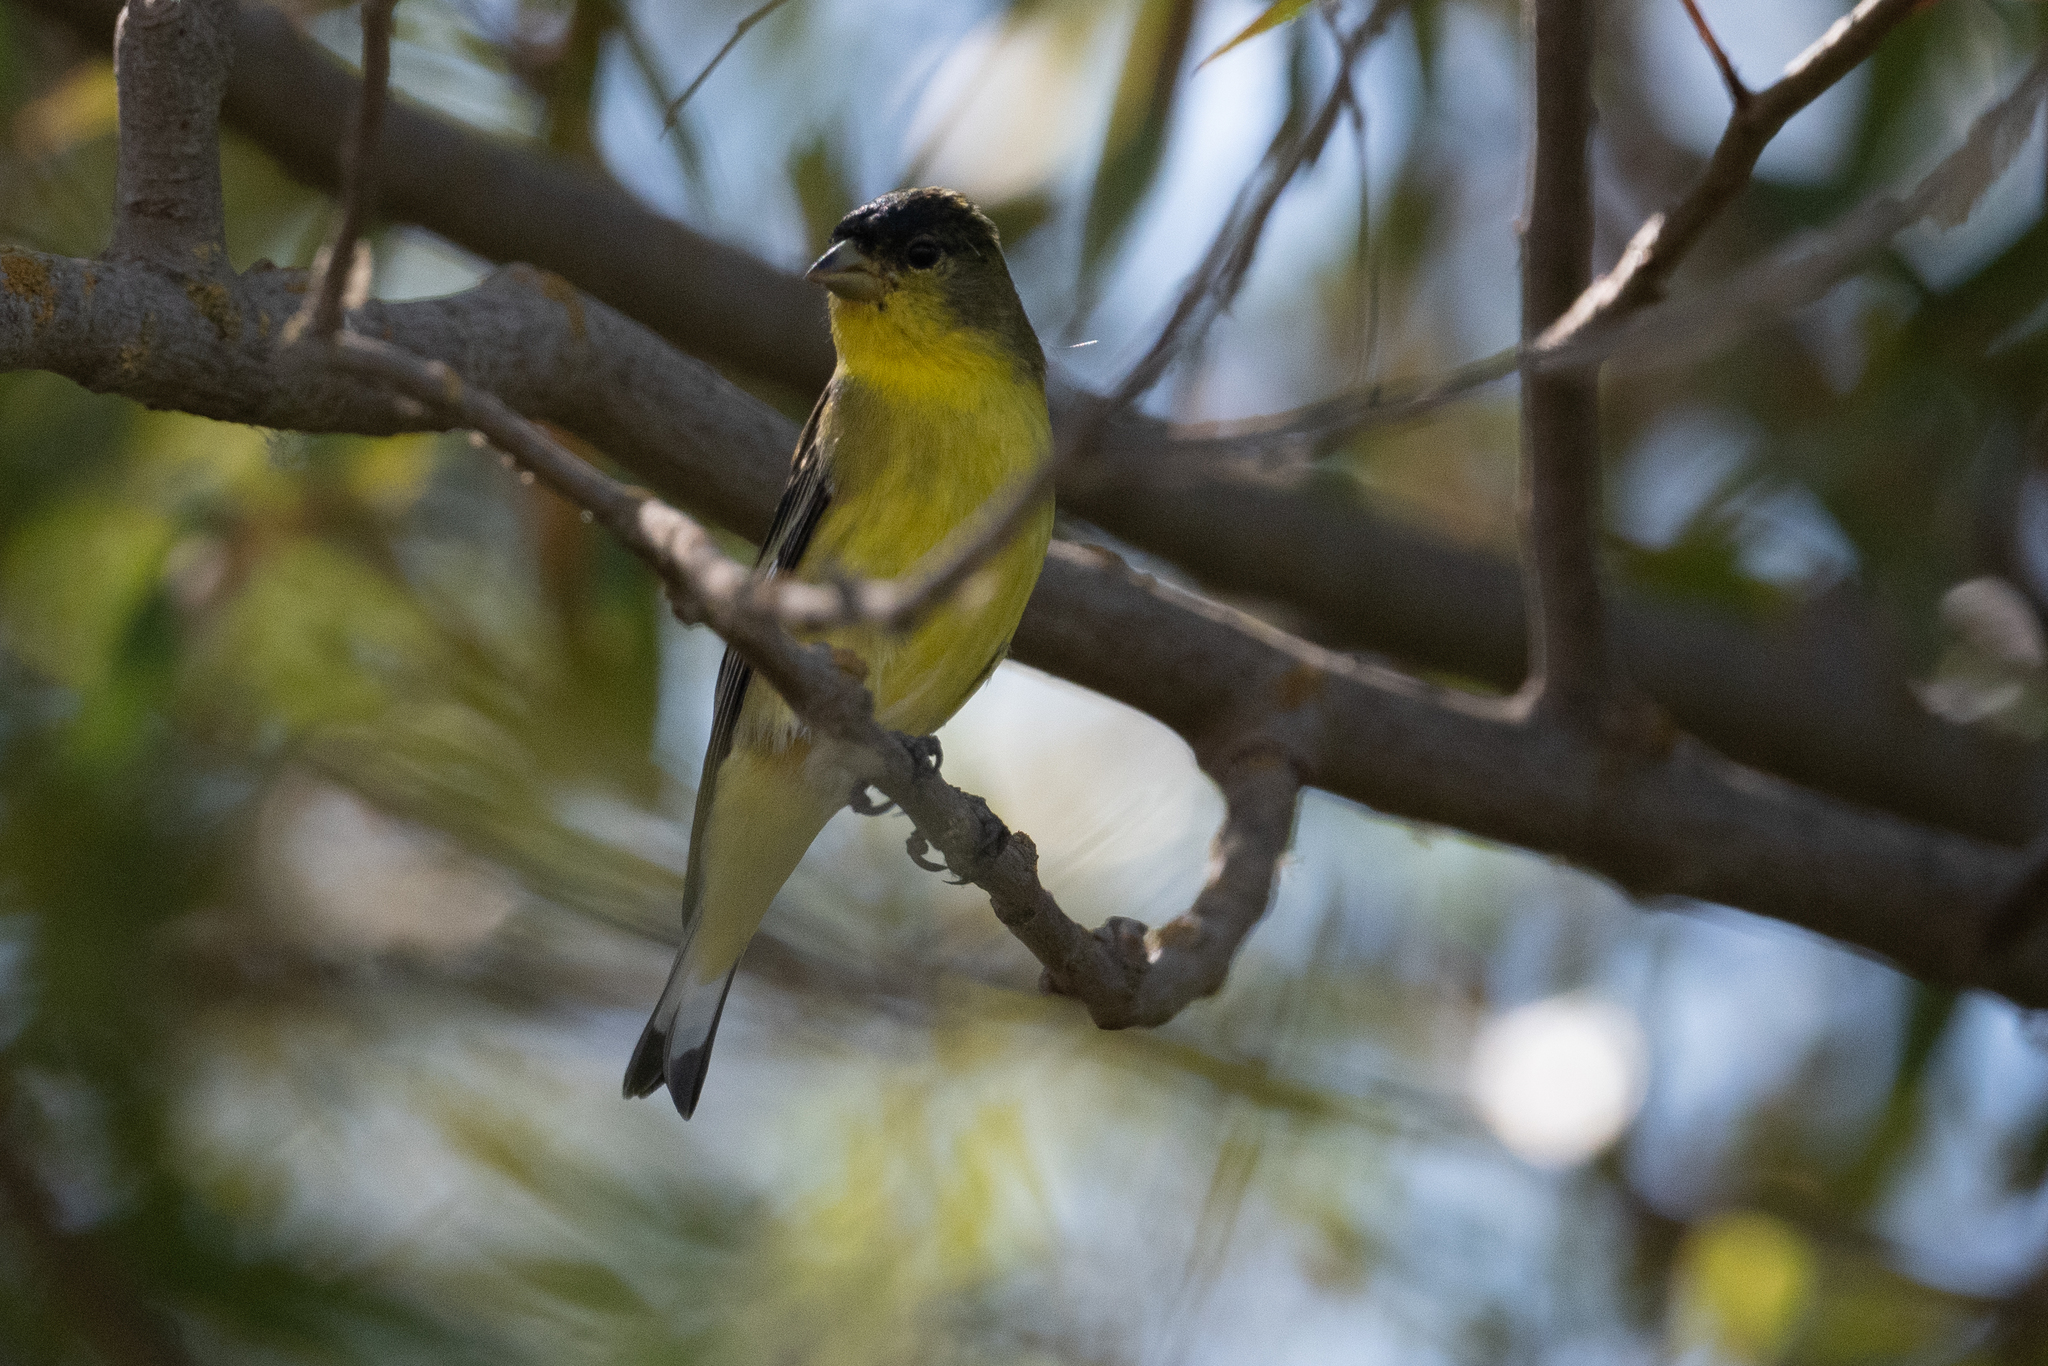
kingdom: Animalia
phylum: Chordata
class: Aves
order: Passeriformes
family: Fringillidae
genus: Spinus
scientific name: Spinus psaltria
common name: Lesser goldfinch
